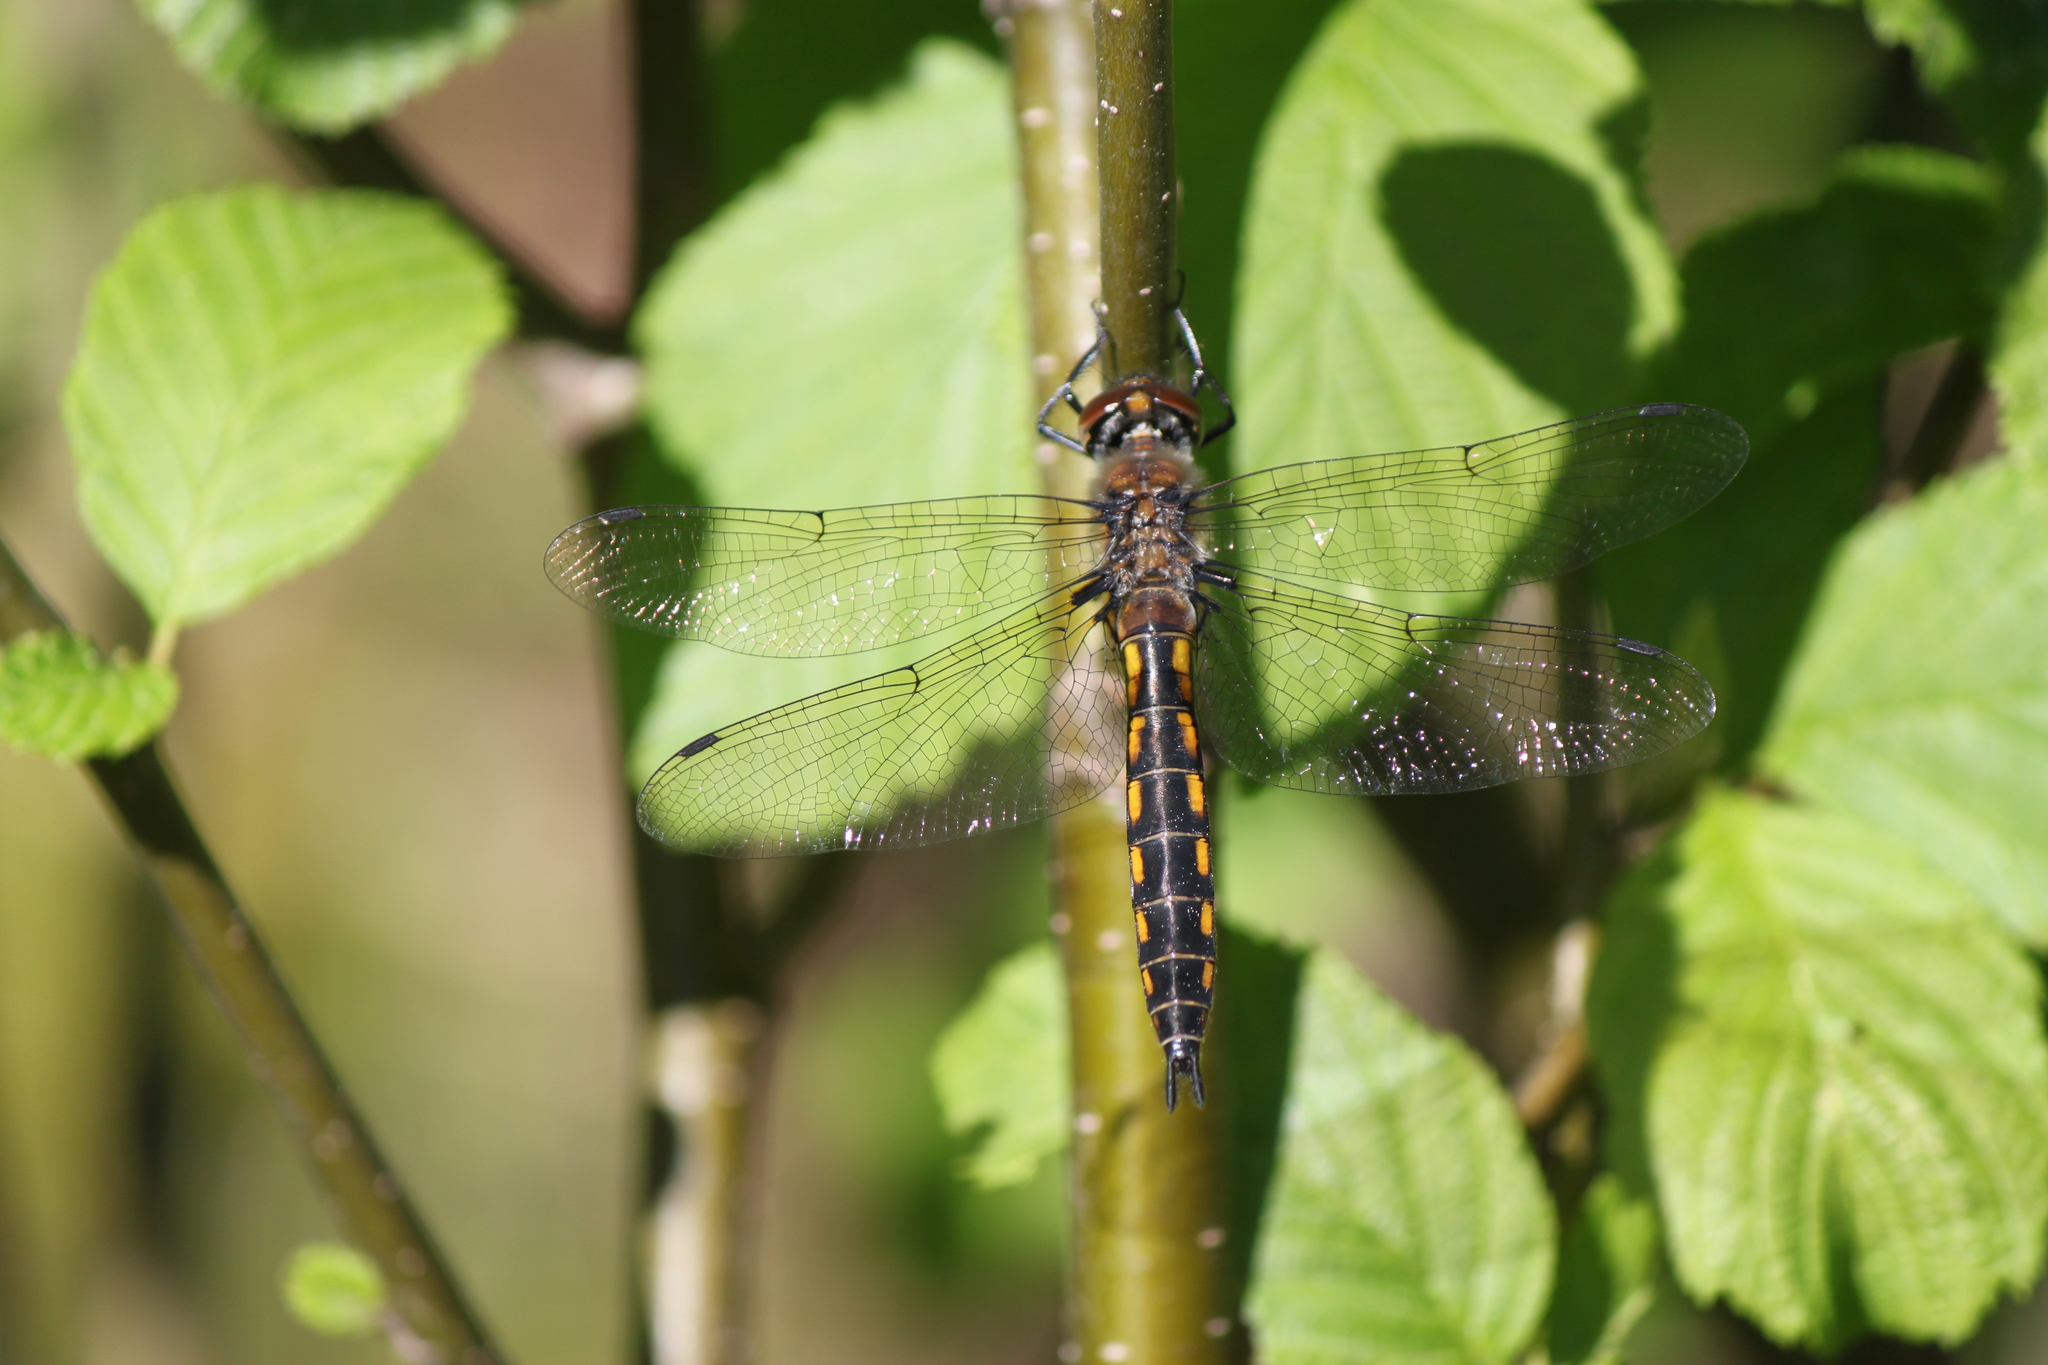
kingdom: Animalia
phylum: Arthropoda
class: Insecta
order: Odonata
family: Corduliidae
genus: Epitheca
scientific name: Epitheca spinigera
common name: Spiny baskettail
